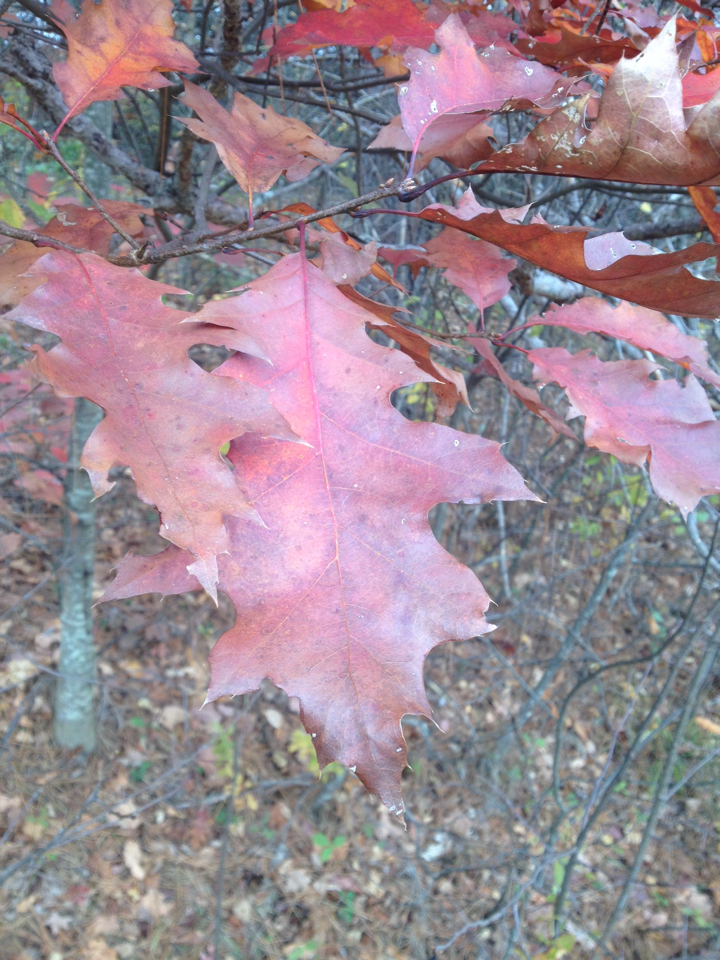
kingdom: Plantae
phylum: Tracheophyta
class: Magnoliopsida
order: Fagales
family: Fagaceae
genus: Quercus
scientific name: Quercus rubra
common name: Red oak
